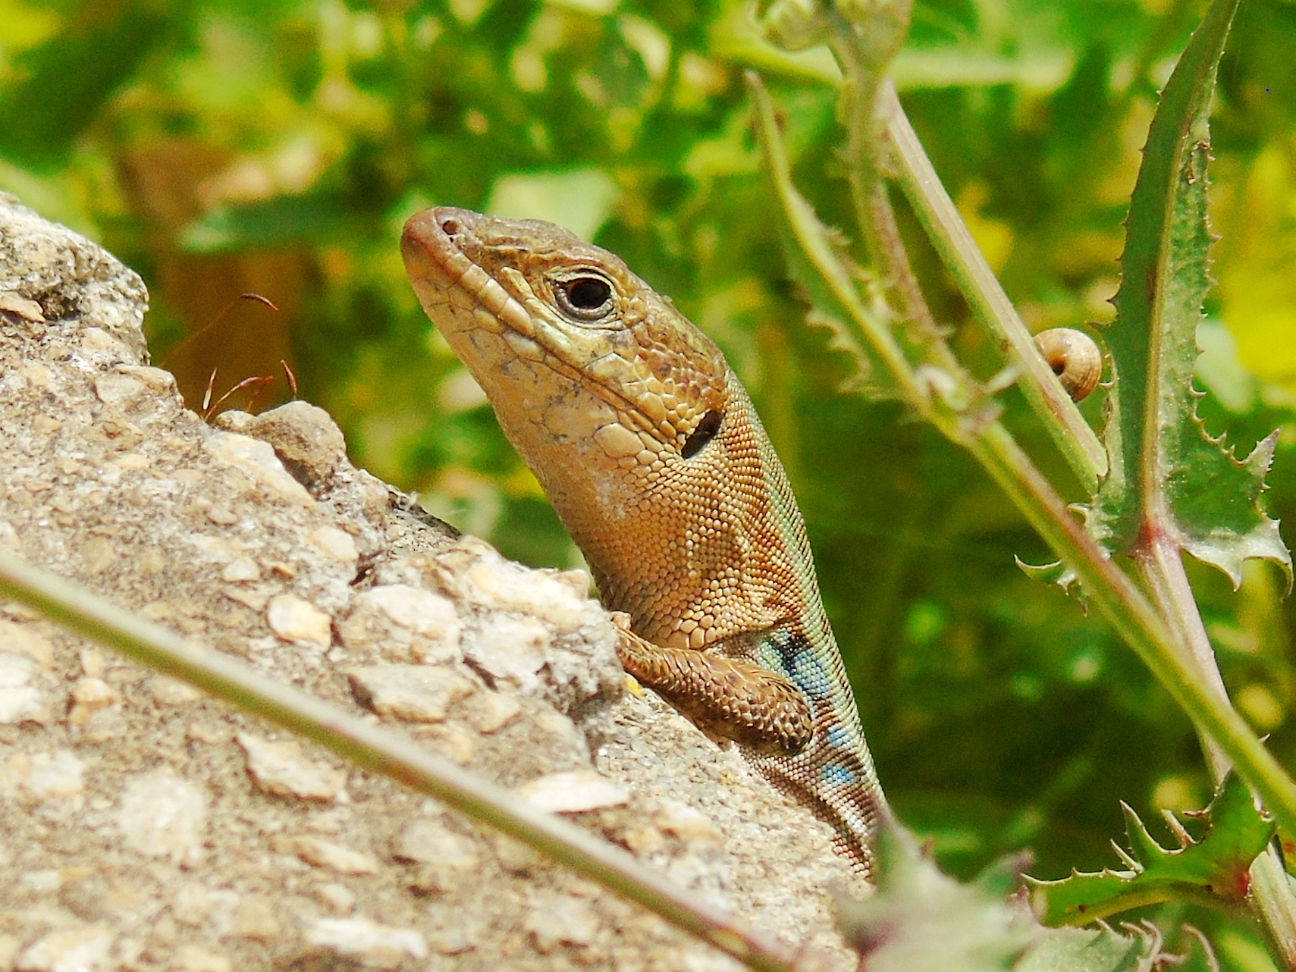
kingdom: Animalia
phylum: Chordata
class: Squamata
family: Lacertidae
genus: Podarcis
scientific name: Podarcis peloponnesiacus
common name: Peloponnese wall lizard
